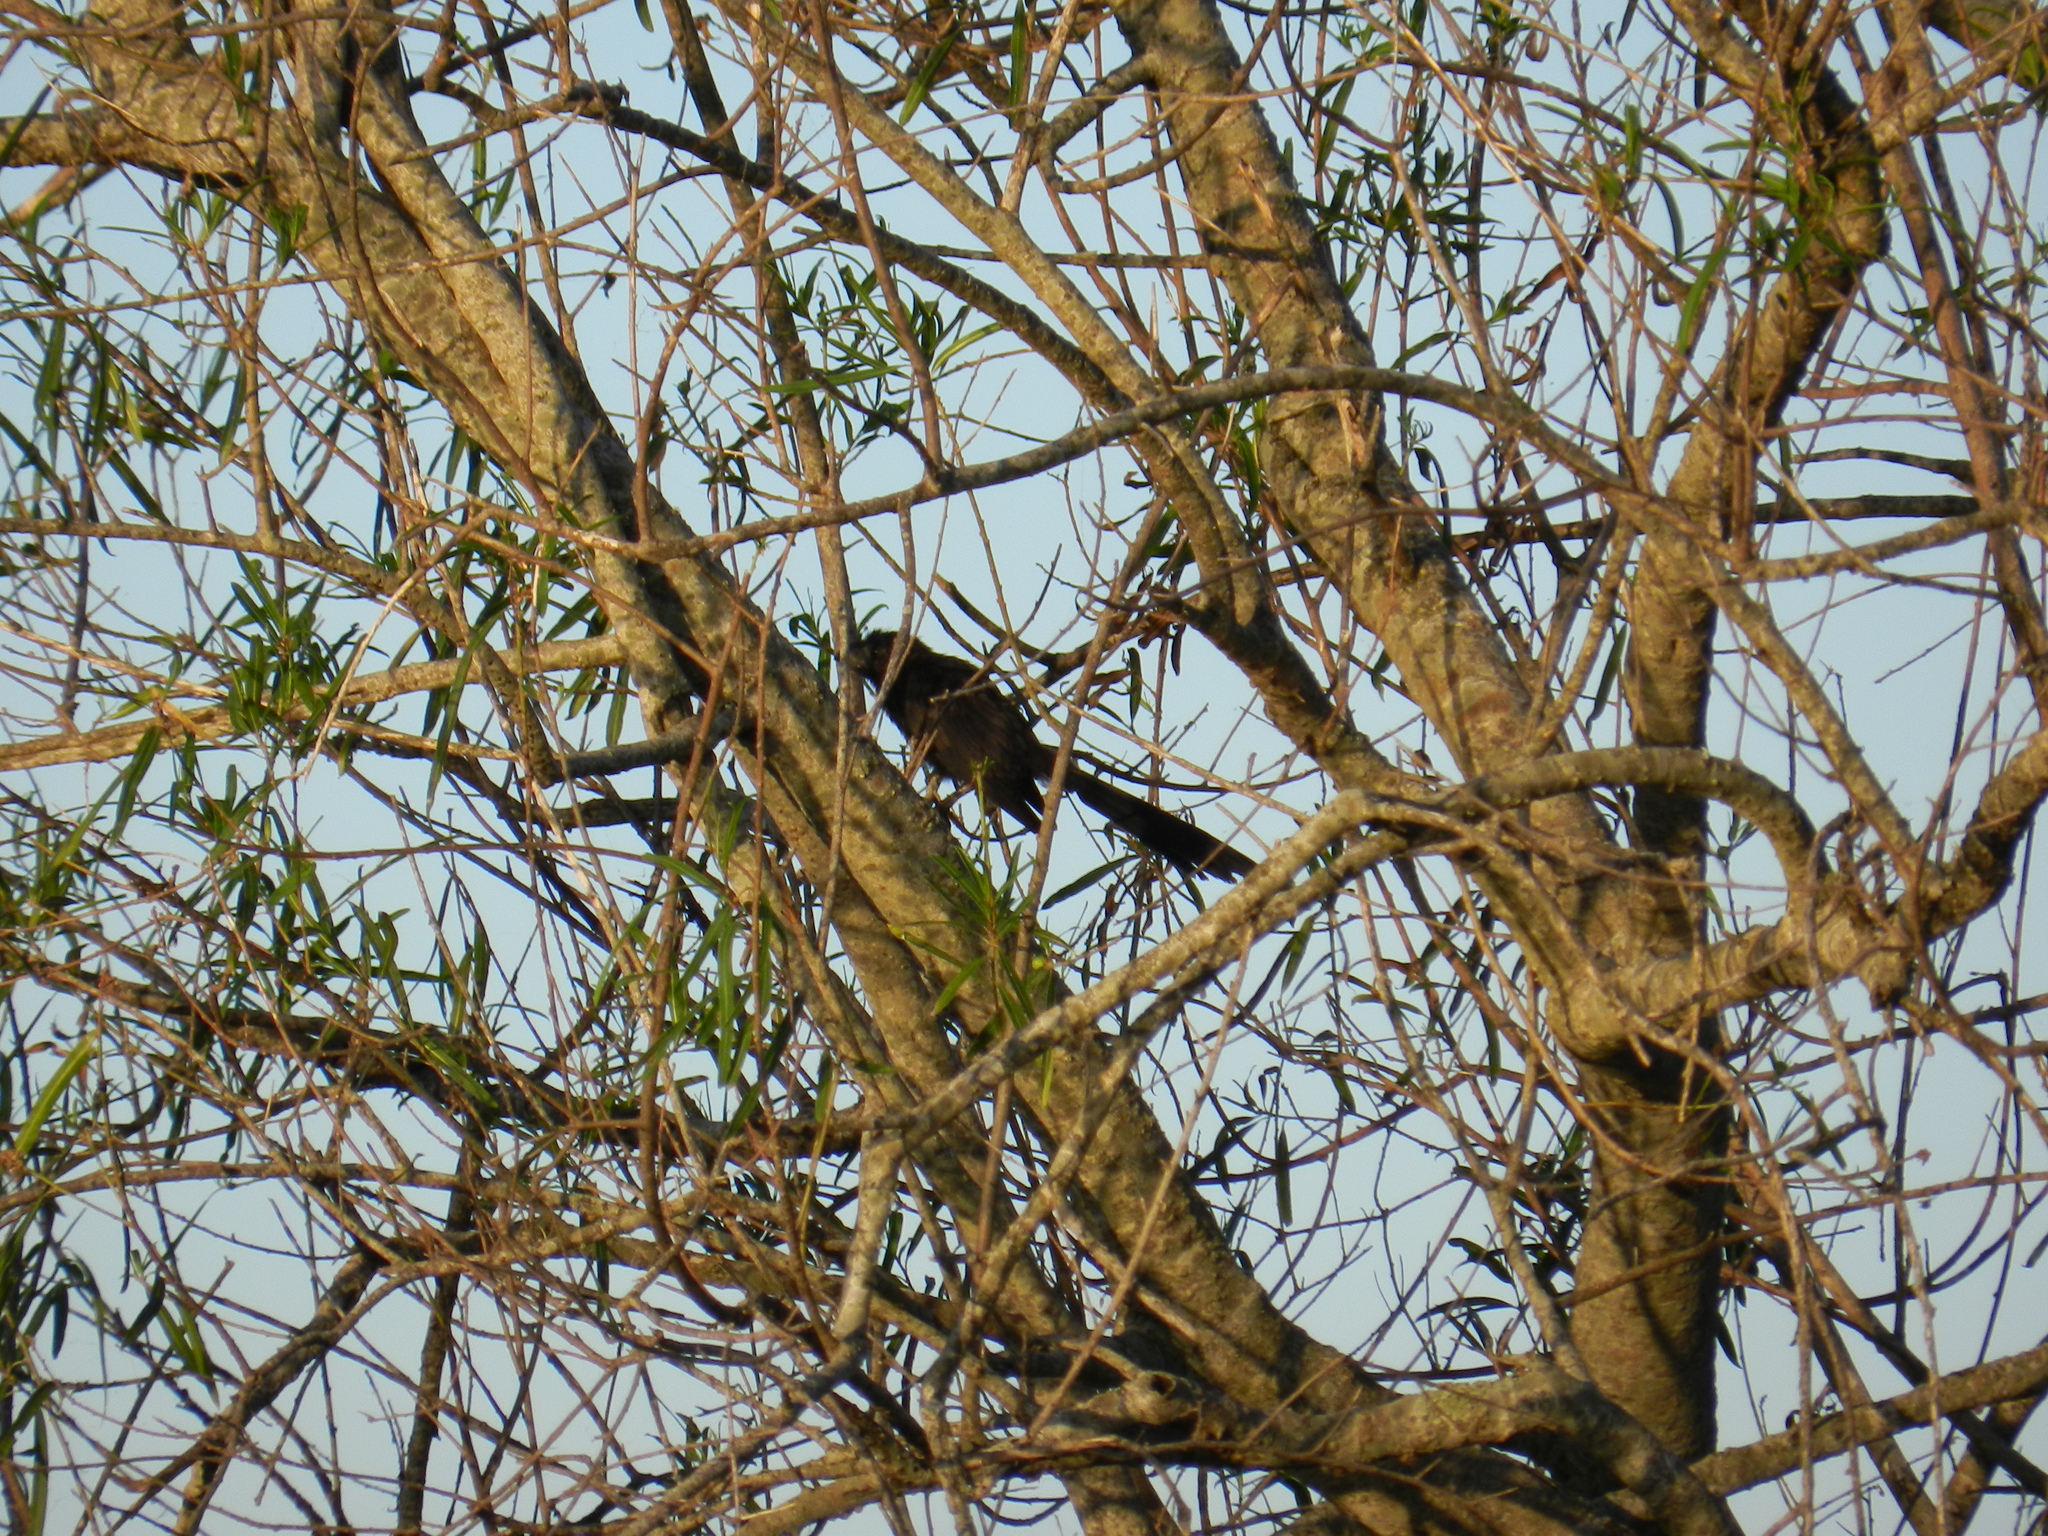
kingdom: Animalia
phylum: Chordata
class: Aves
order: Cuculiformes
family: Cuculidae
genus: Crotophaga
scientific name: Crotophaga ani
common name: Smooth-billed ani
